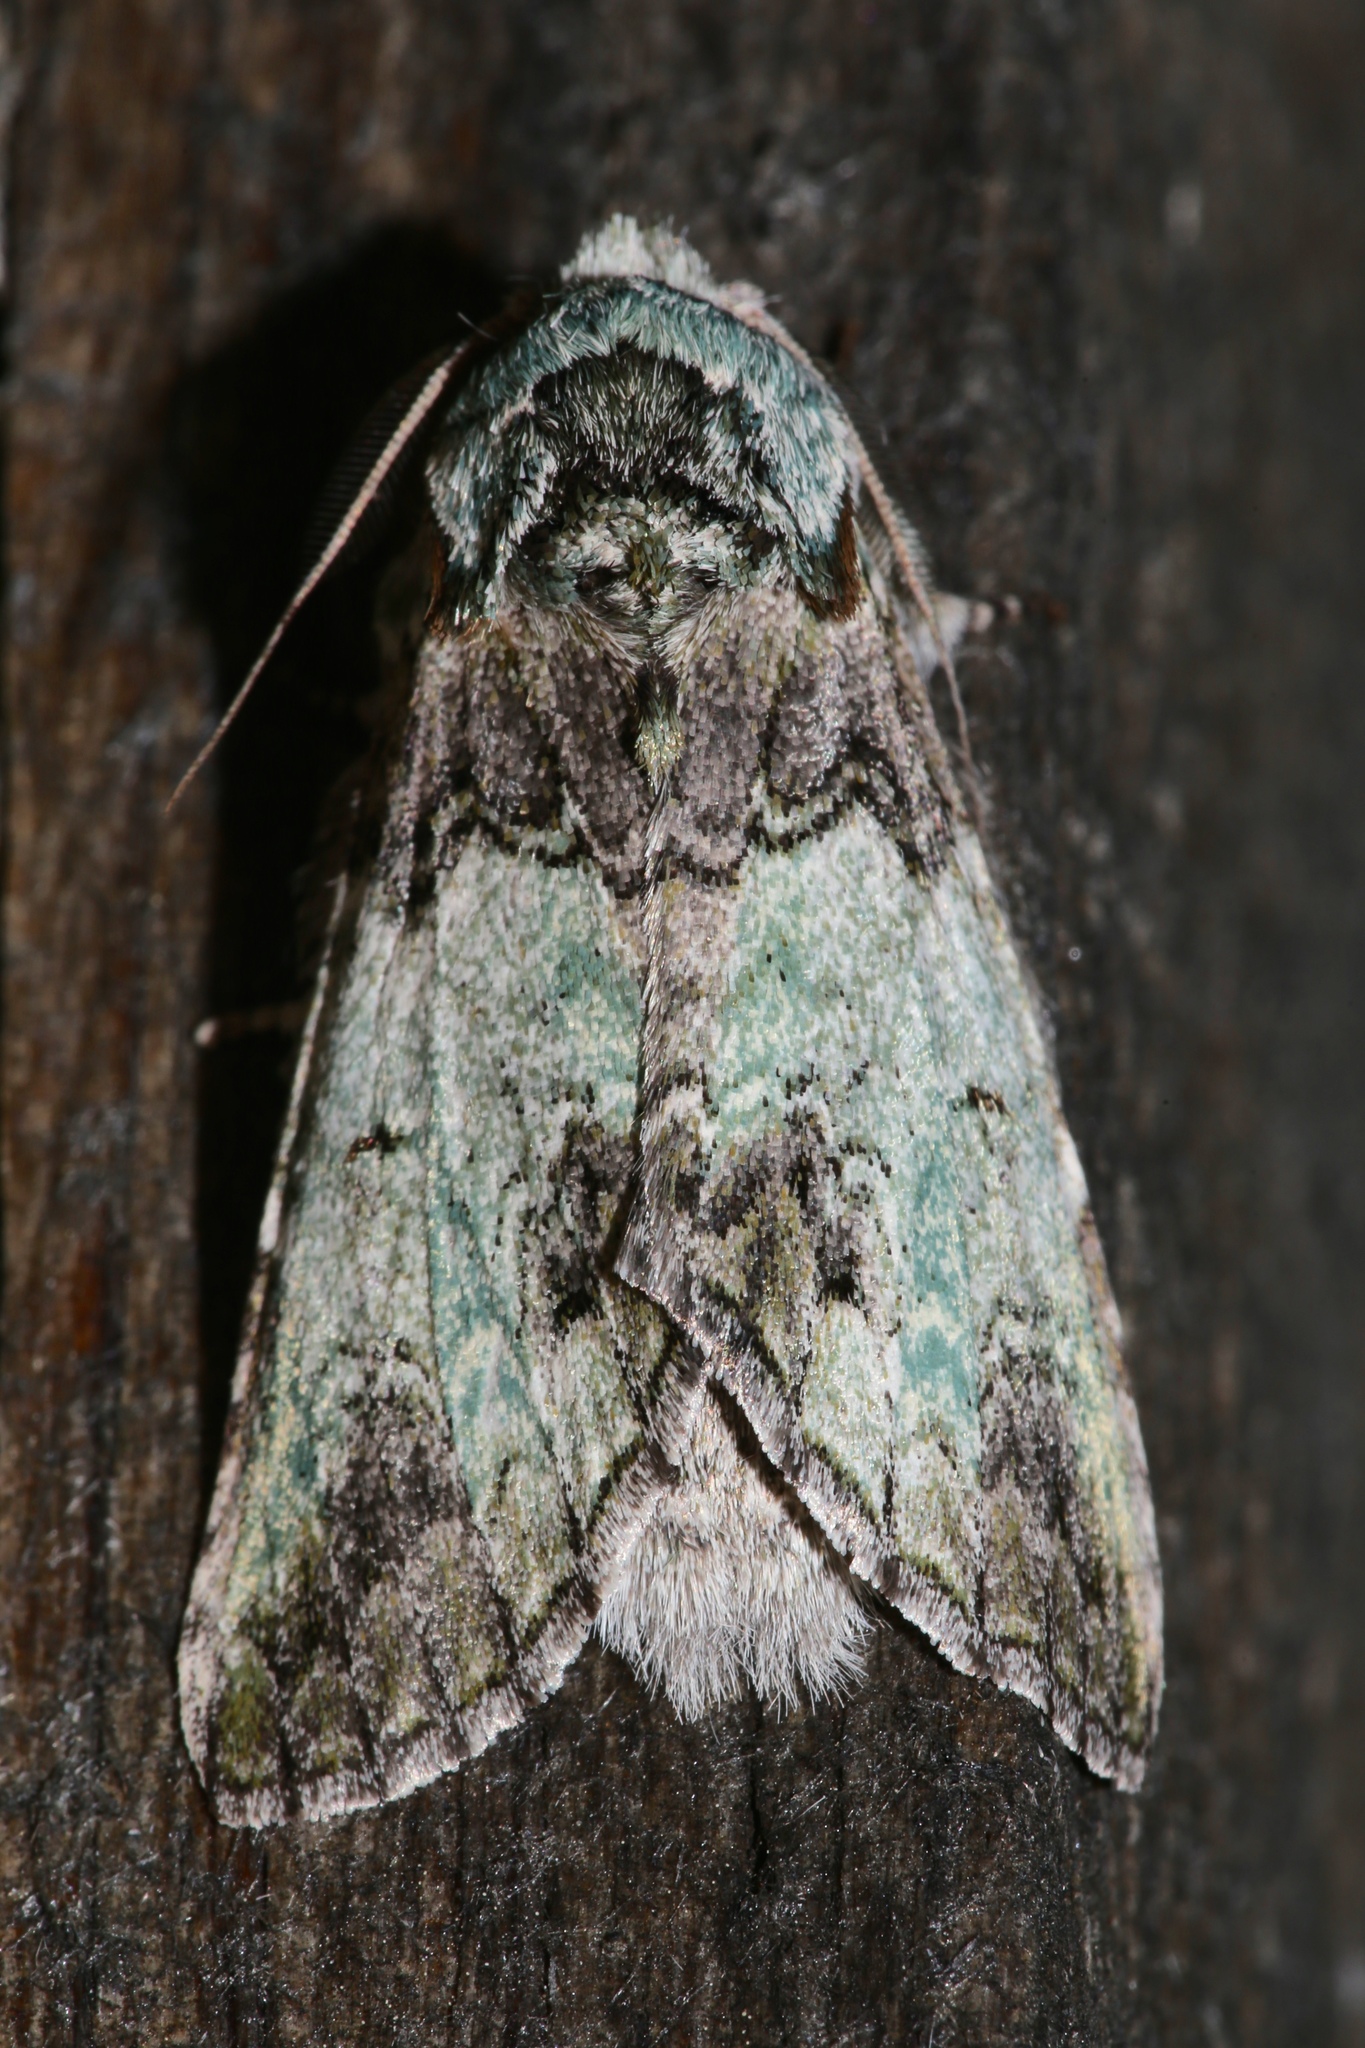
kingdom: Animalia
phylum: Arthropoda
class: Insecta
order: Lepidoptera
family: Notodontidae
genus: Macrurocampa
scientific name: Macrurocampa marthesia
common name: Mottled prominent
